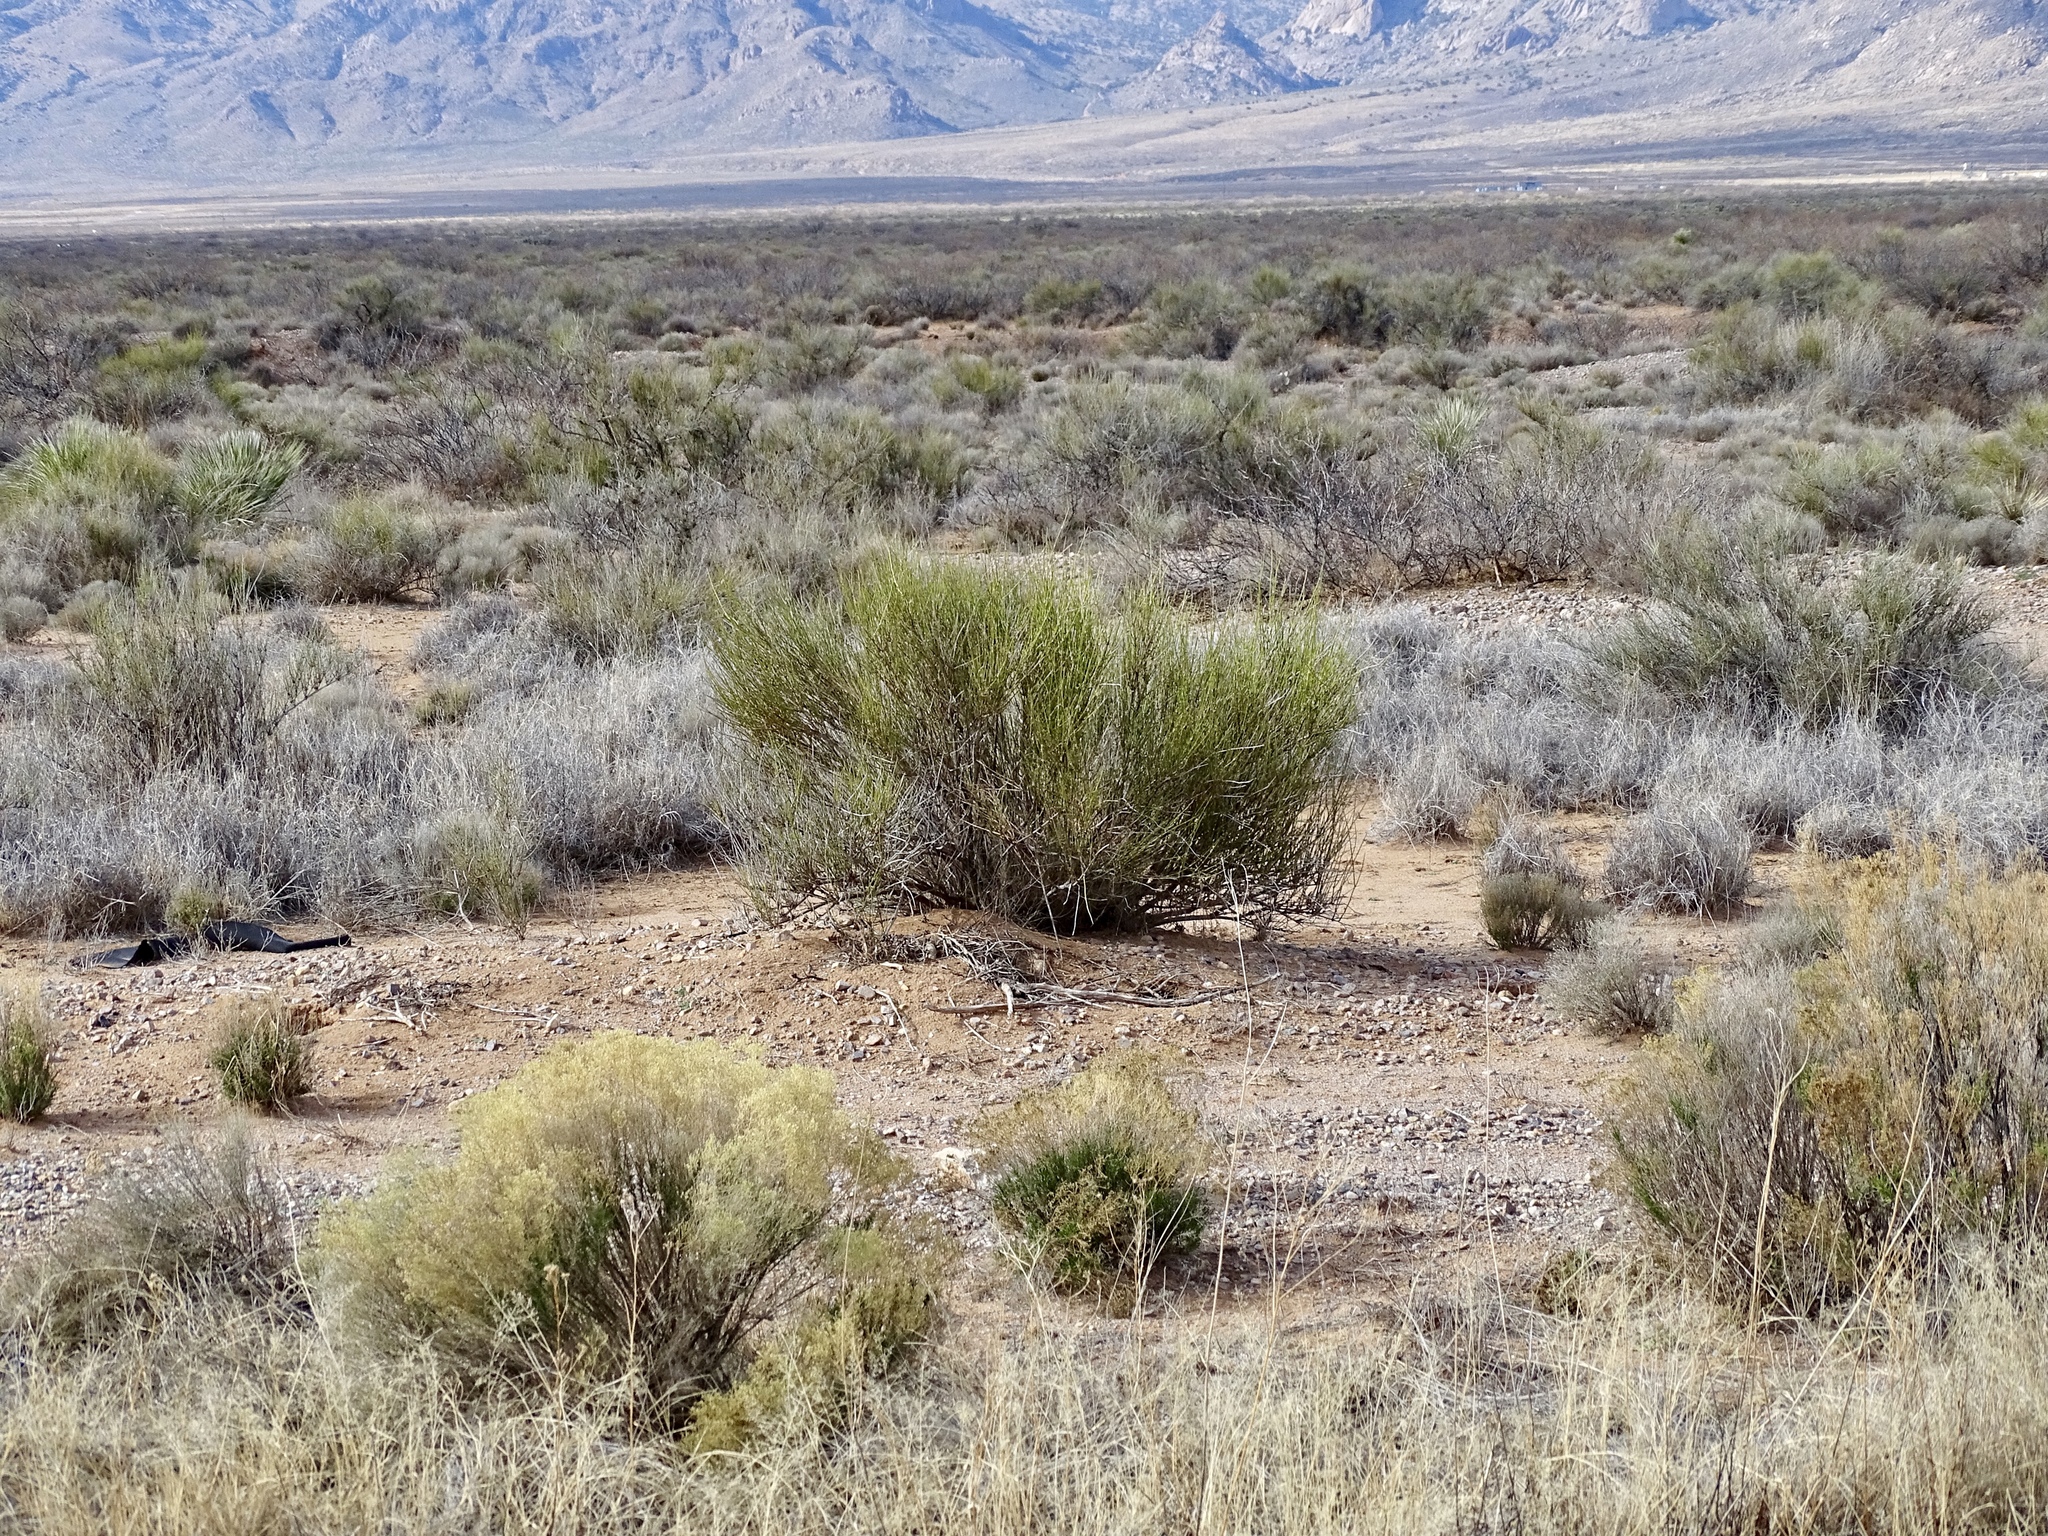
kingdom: Plantae
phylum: Tracheophyta
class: Gnetopsida
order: Ephedrales
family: Ephedraceae
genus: Ephedra
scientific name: Ephedra trifurca
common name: Mexican-tea
